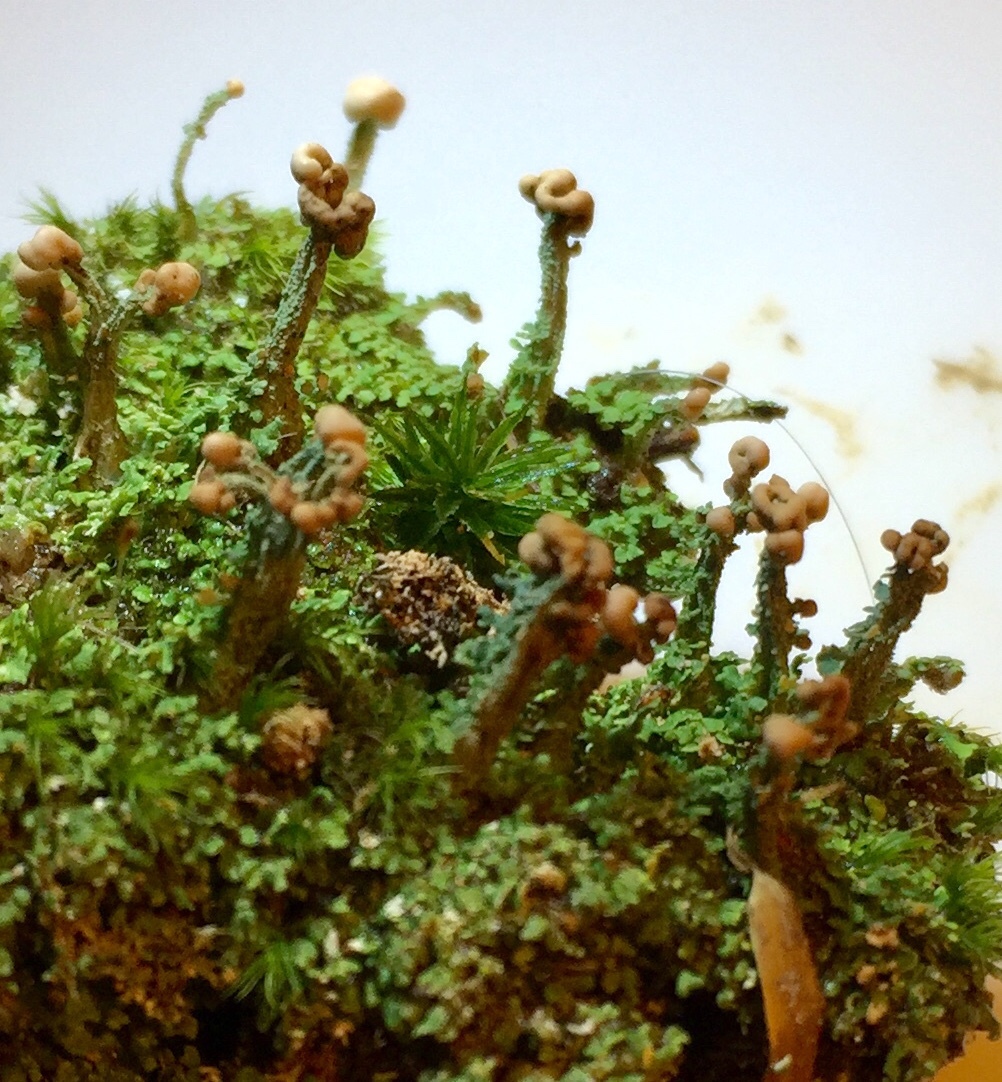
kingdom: Fungi
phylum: Ascomycota
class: Lecanoromycetes
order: Lecanorales
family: Cladoniaceae
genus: Cladonia
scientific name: Cladonia peziziformis
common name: Cup lichen
